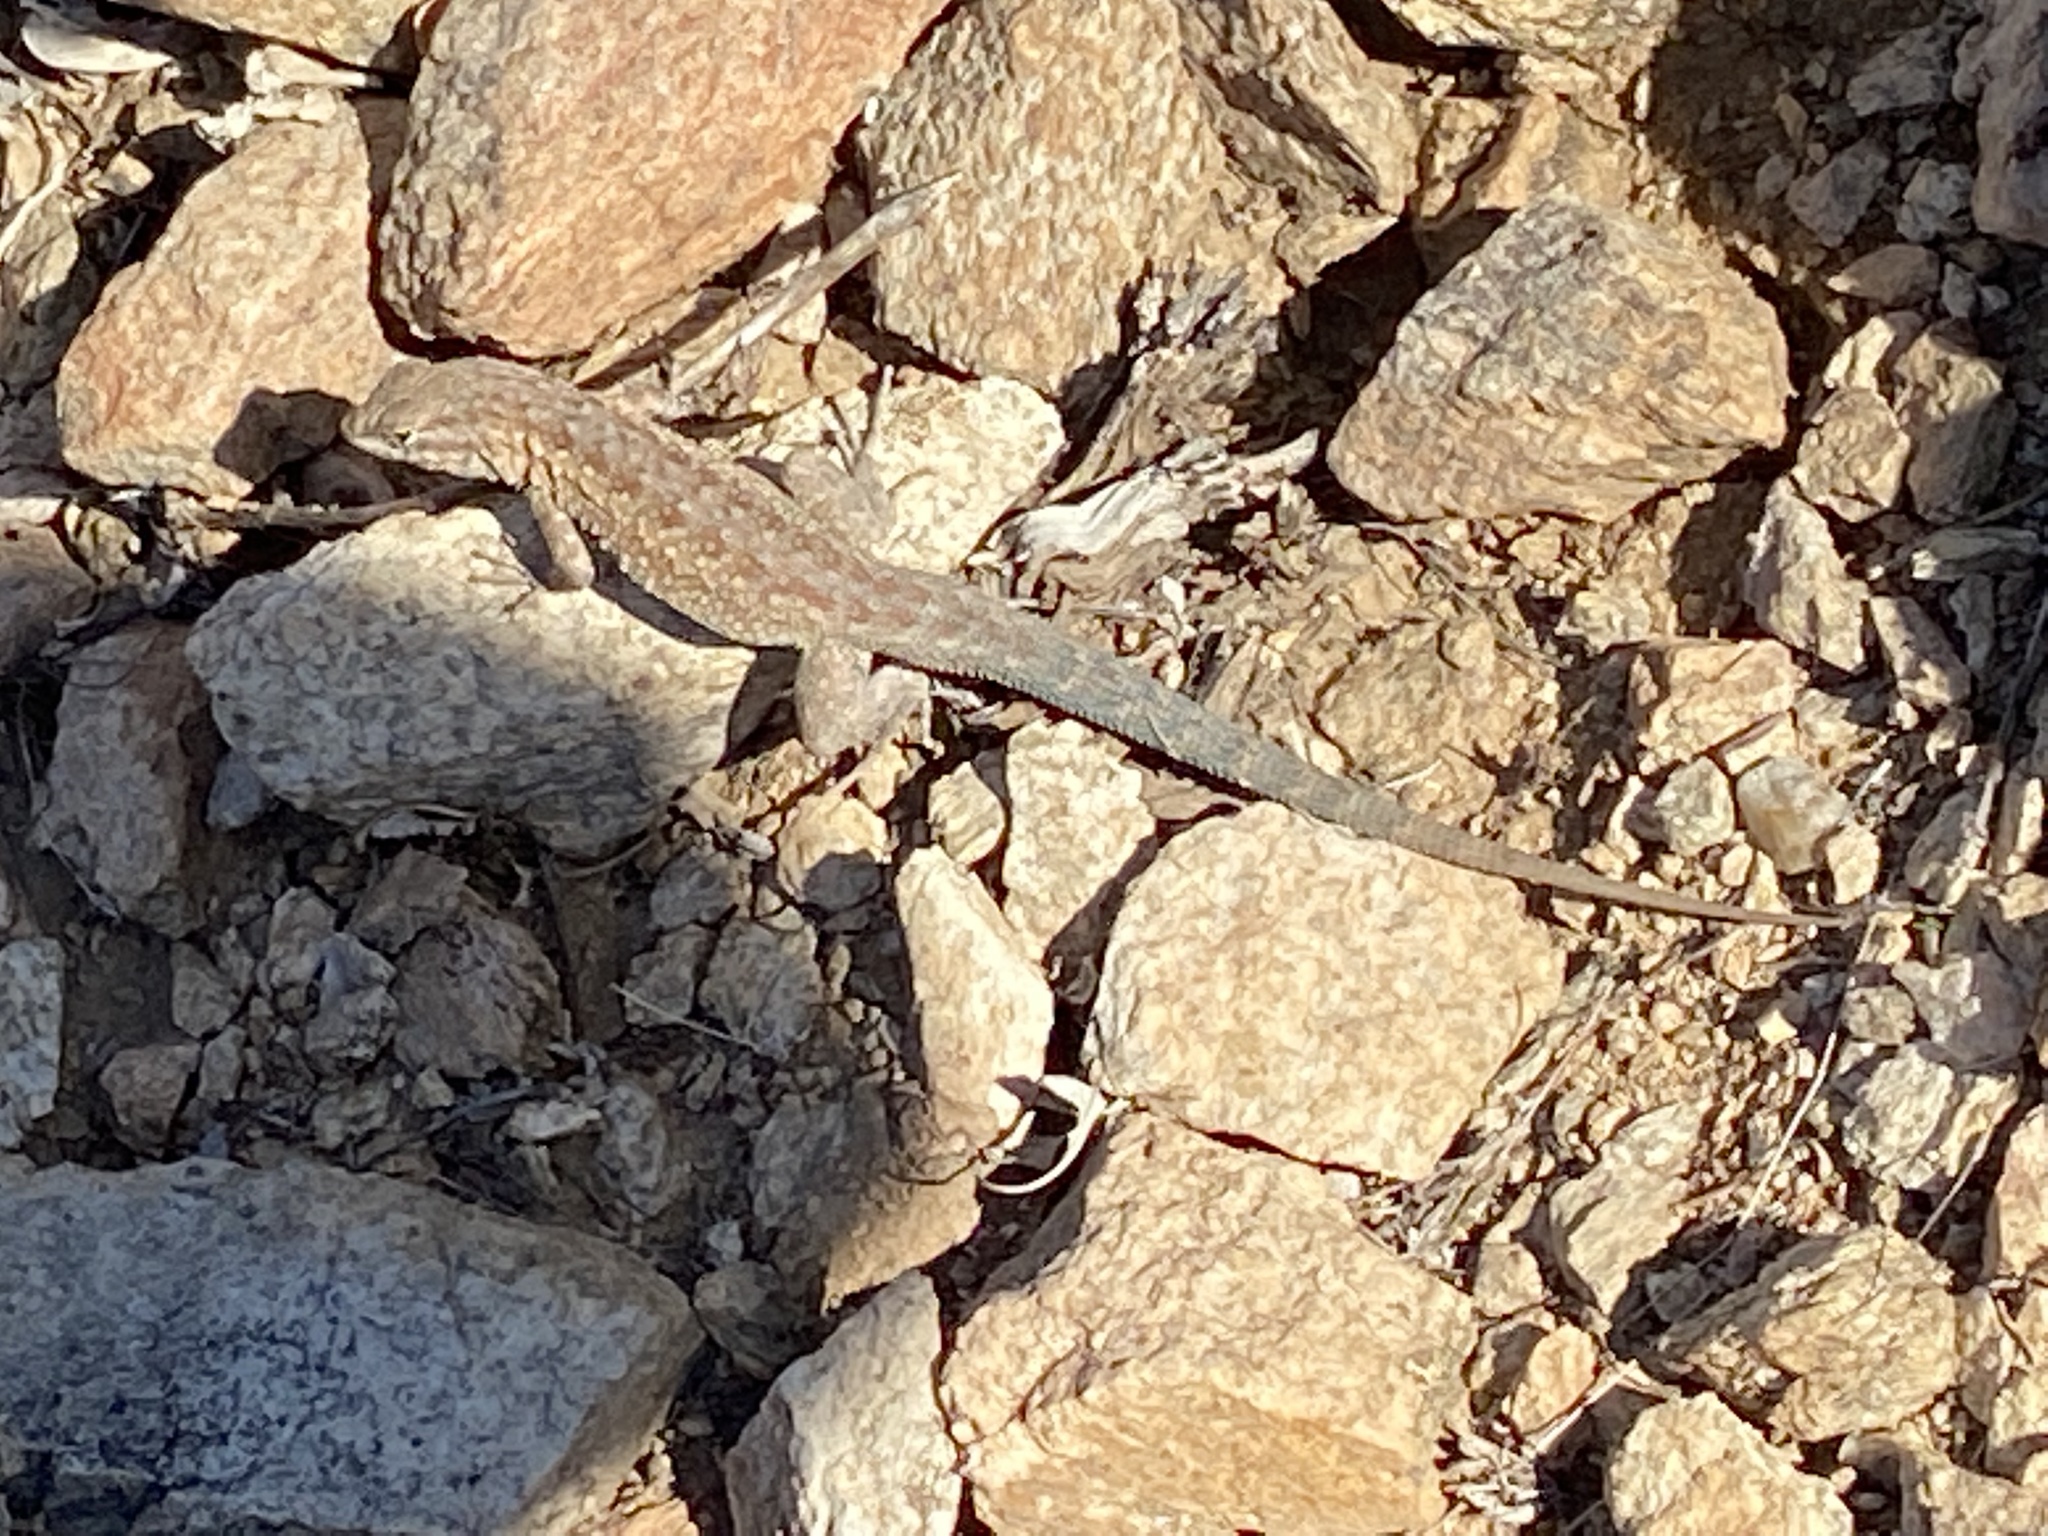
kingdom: Animalia
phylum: Chordata
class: Squamata
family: Phrynosomatidae
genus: Uta
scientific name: Uta stansburiana
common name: Side-blotched lizard
